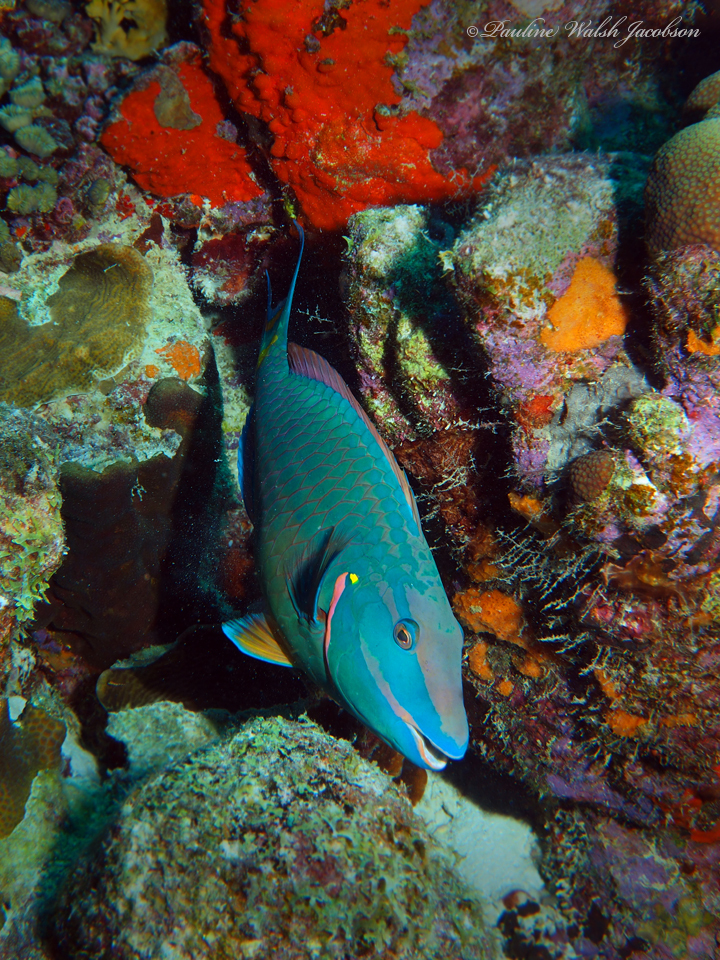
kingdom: Animalia
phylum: Chordata
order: Perciformes
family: Scaridae
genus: Sparisoma
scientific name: Sparisoma viride
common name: Stoplight parrotfish
